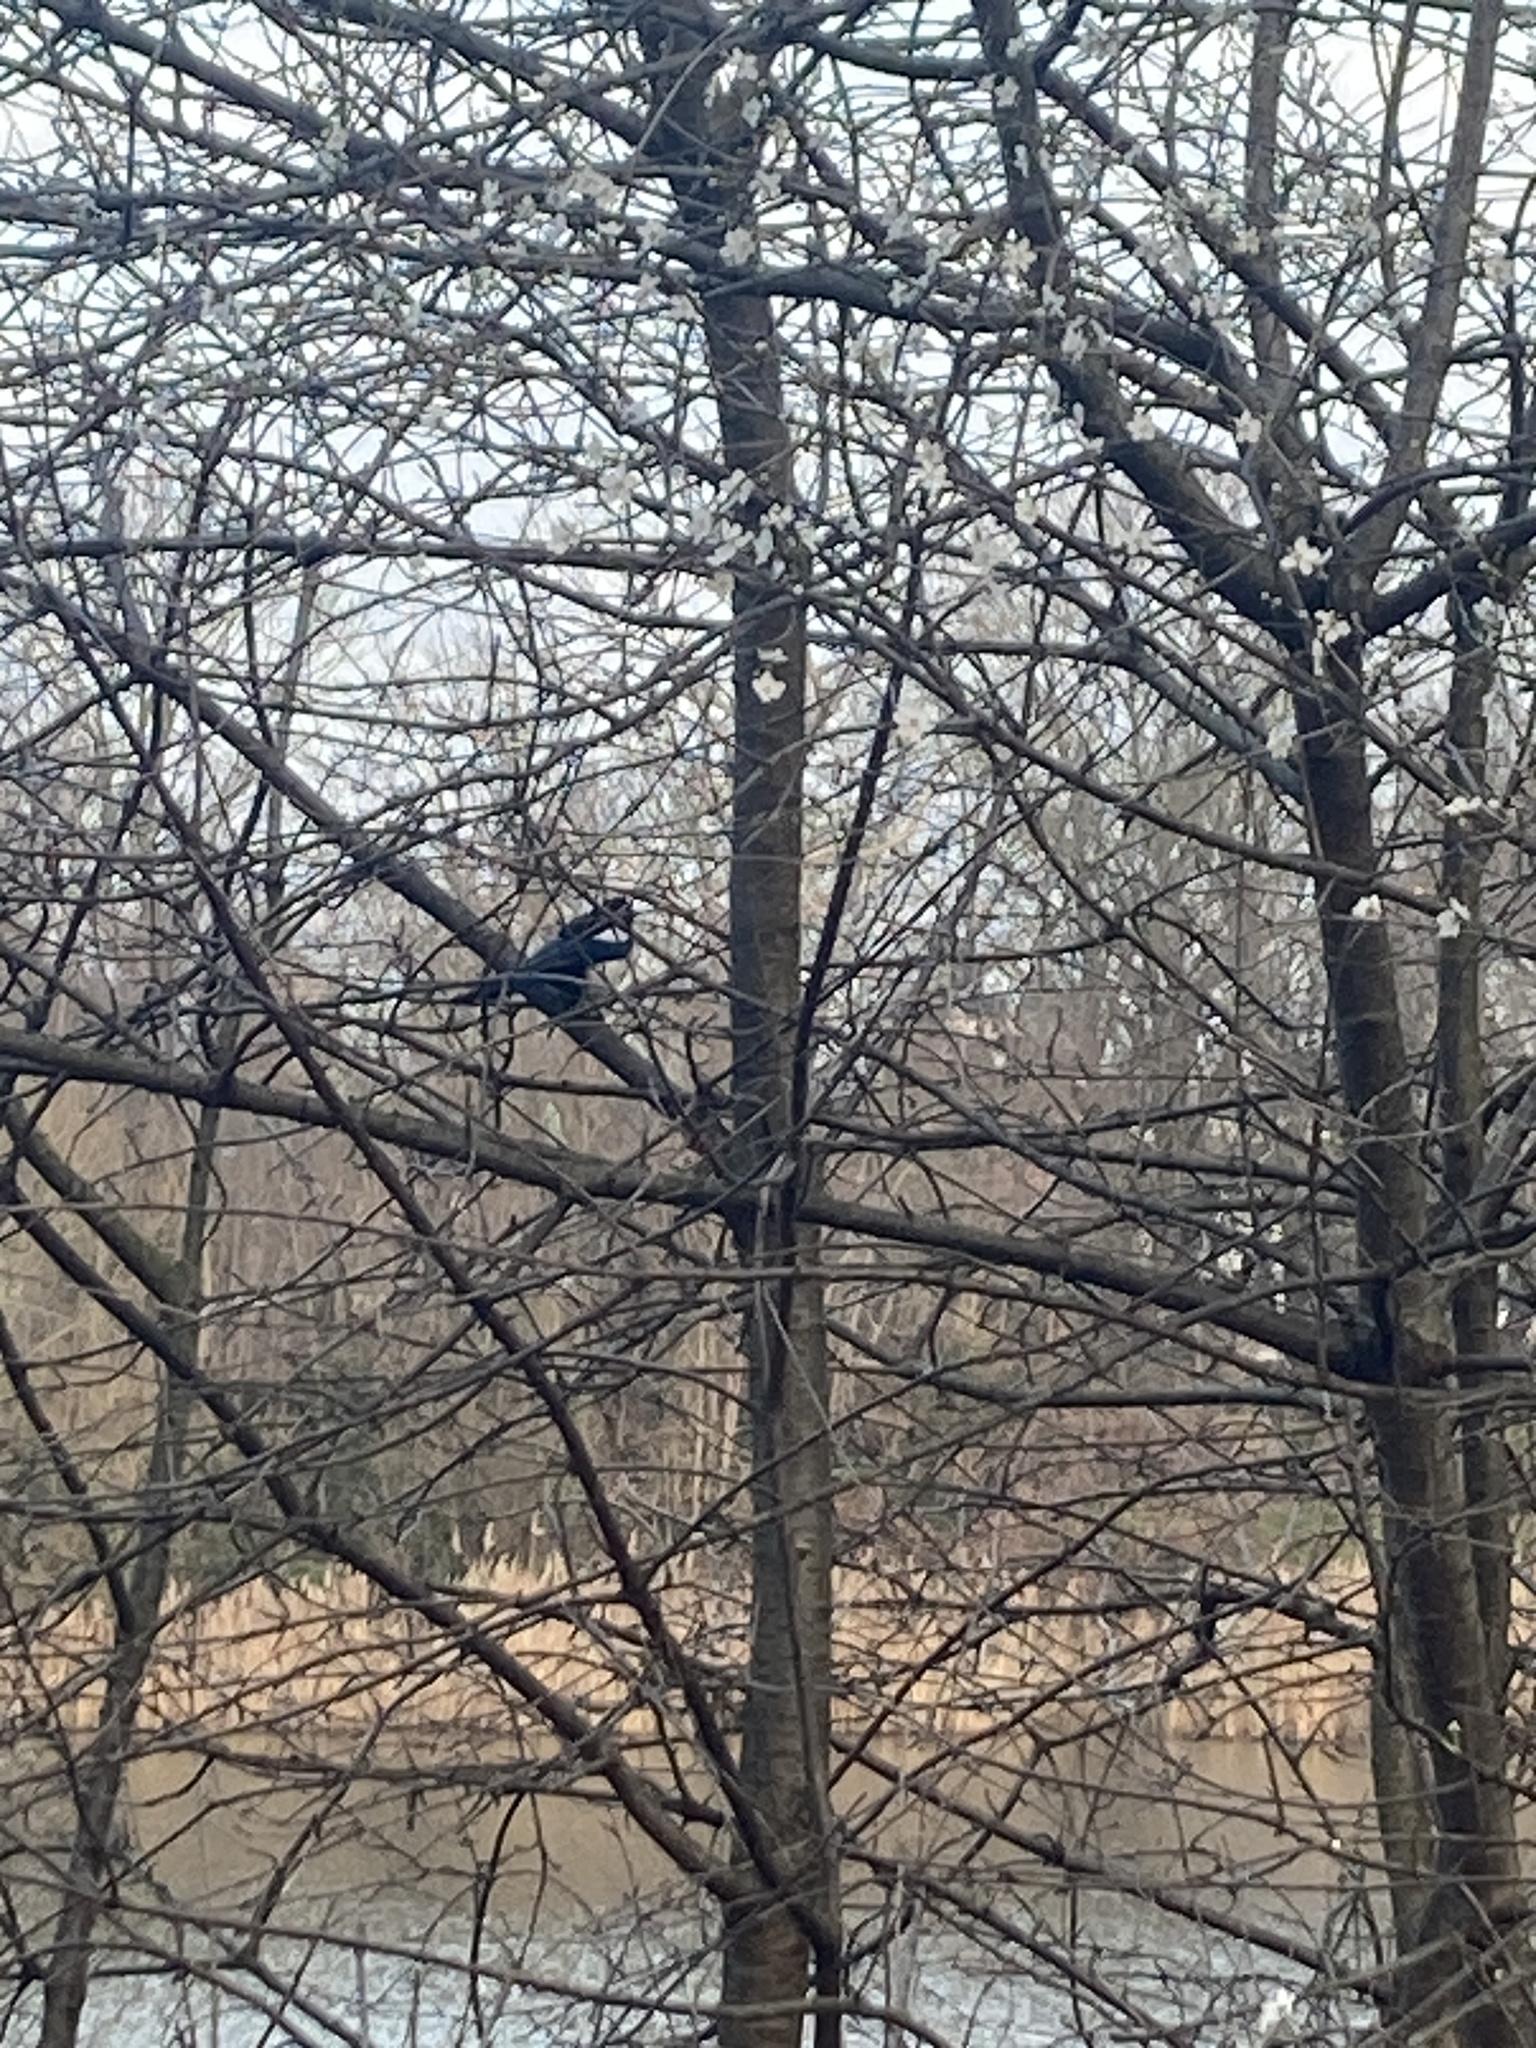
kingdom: Animalia
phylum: Chordata
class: Aves
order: Passeriformes
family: Corvidae
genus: Pica
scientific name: Pica pica
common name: Eurasian magpie
